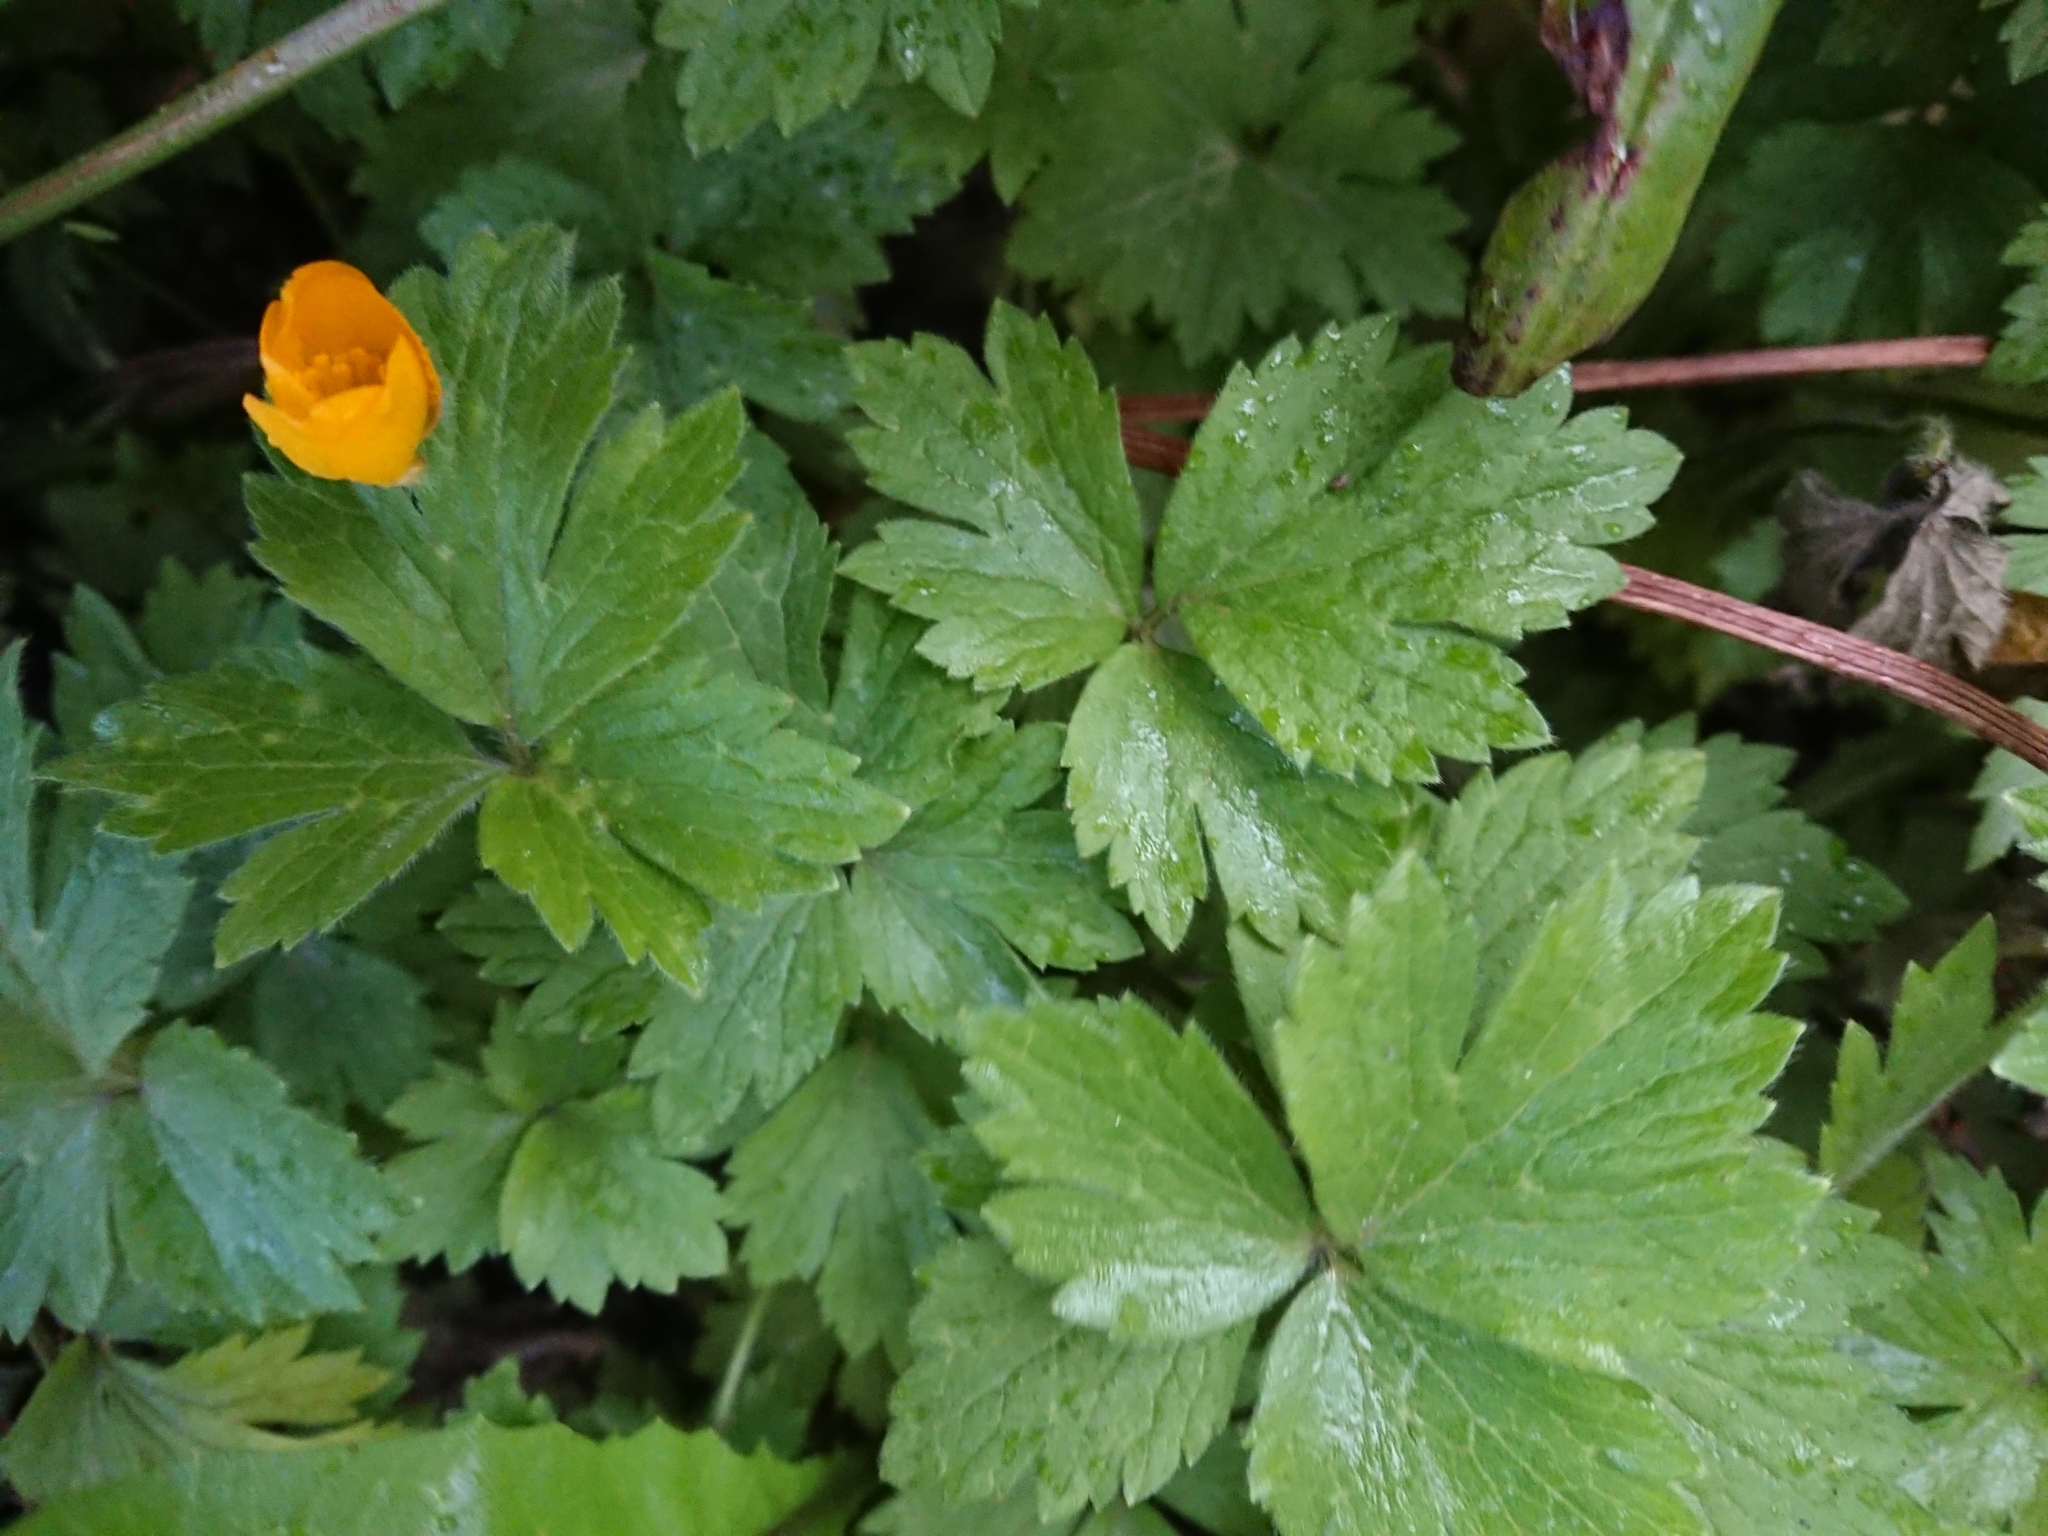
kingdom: Plantae
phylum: Tracheophyta
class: Magnoliopsida
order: Ranunculales
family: Ranunculaceae
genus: Ranunculus
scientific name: Ranunculus repens
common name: Creeping buttercup
